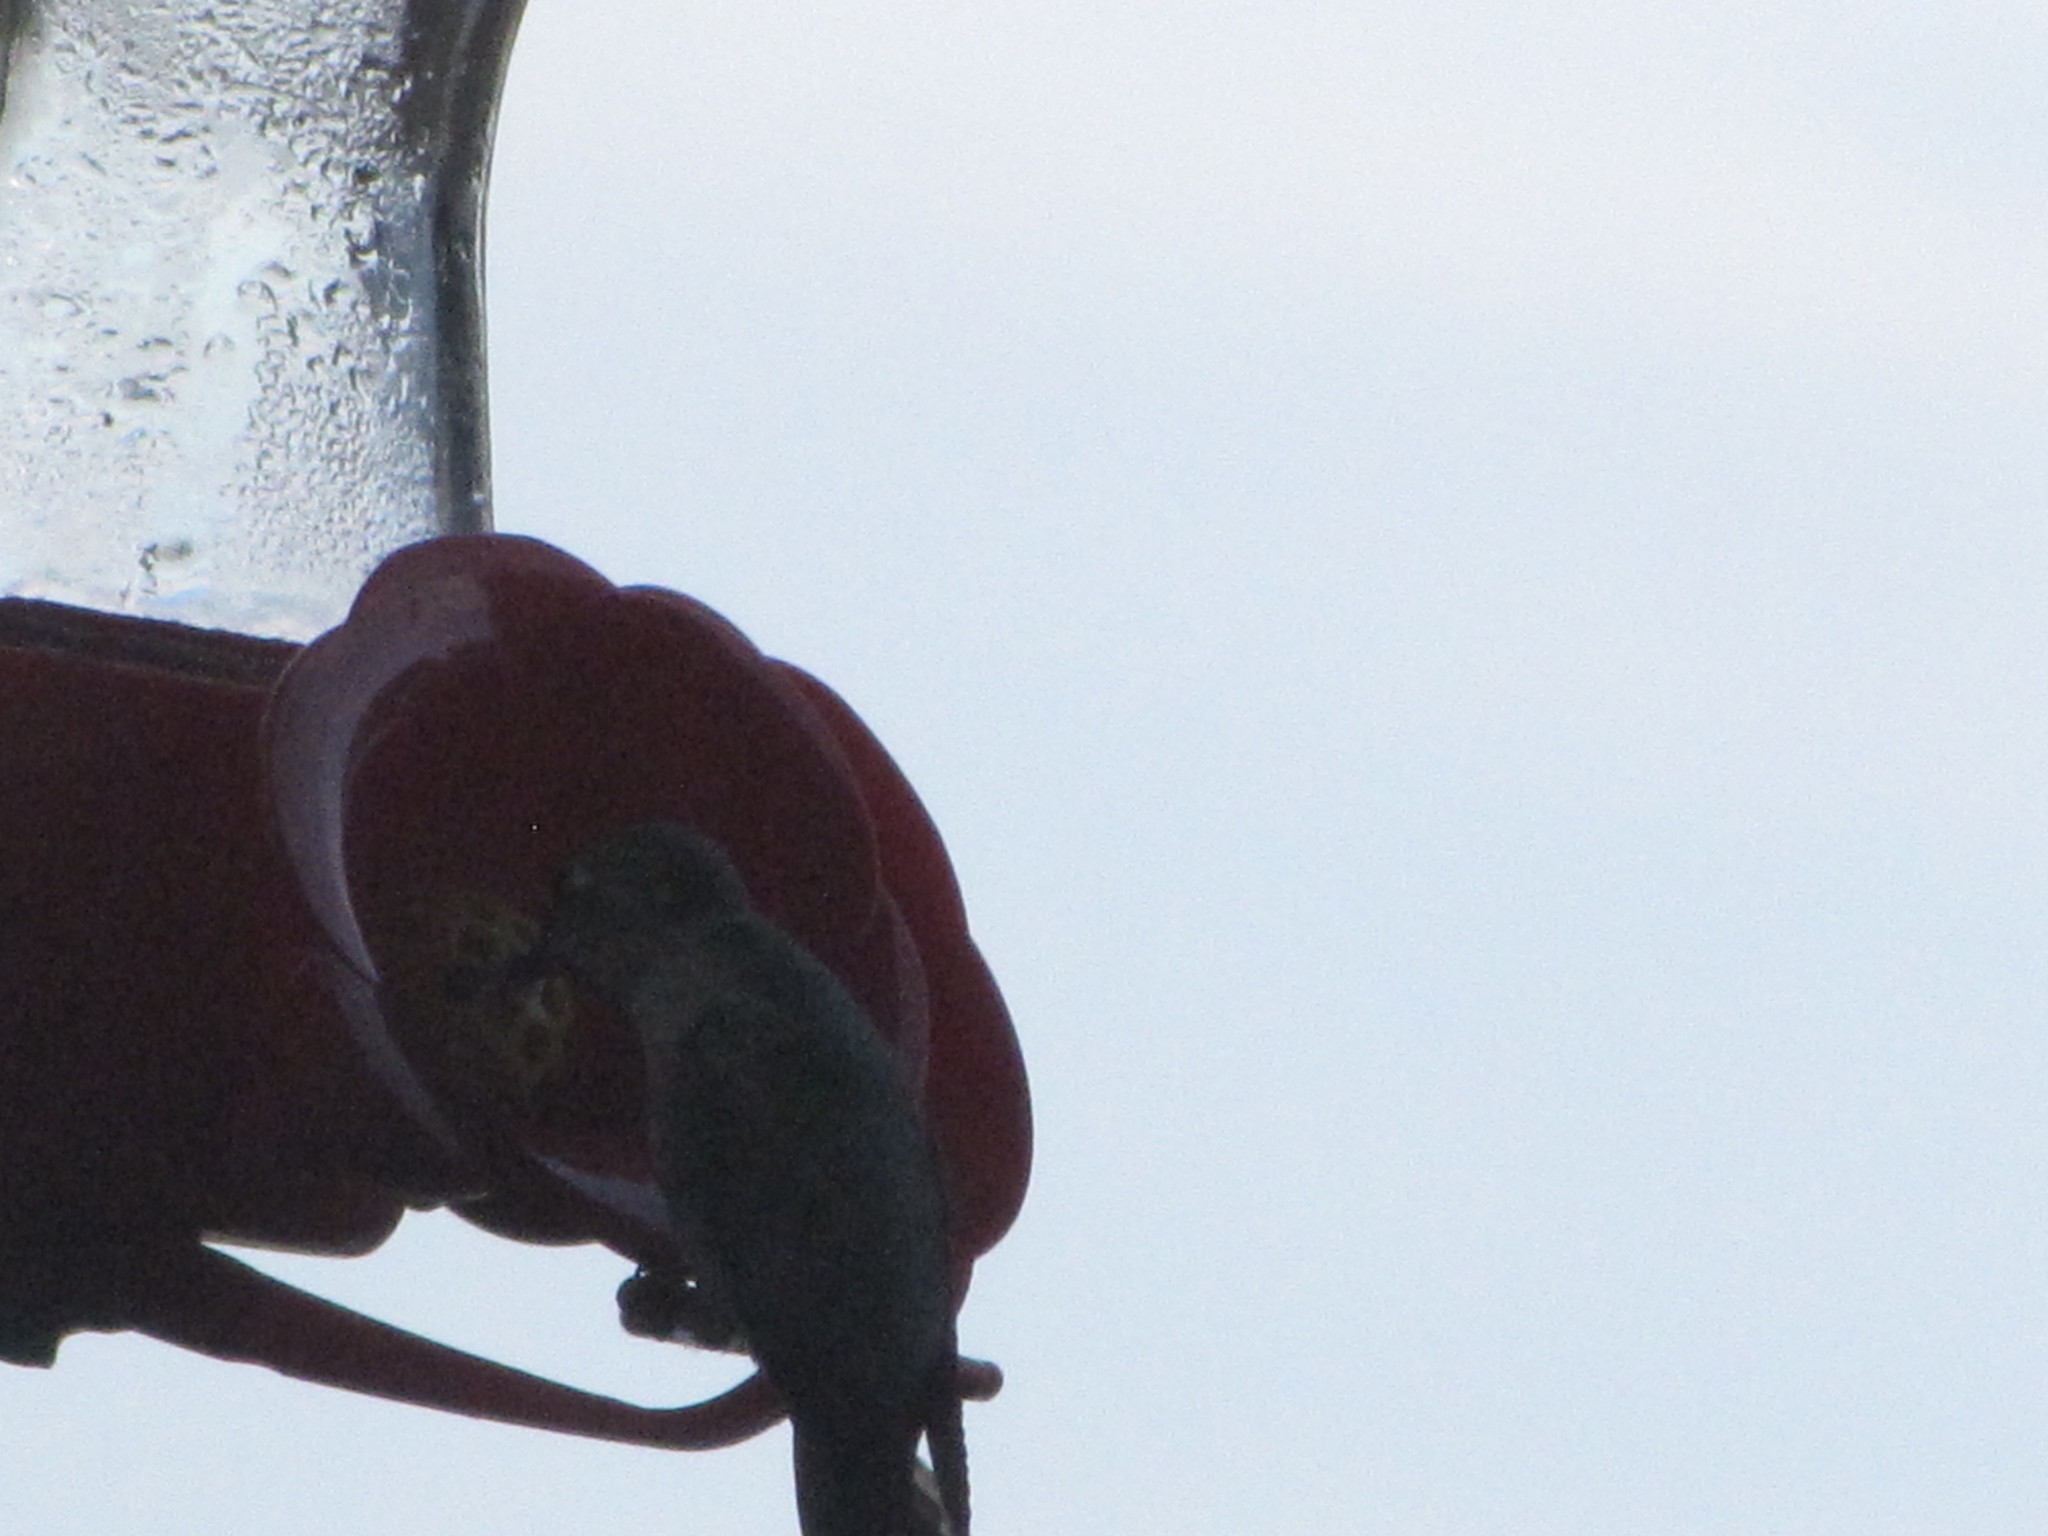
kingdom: Animalia
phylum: Chordata
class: Aves
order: Apodiformes
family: Trochilidae
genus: Calypte
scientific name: Calypte anna
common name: Anna's hummingbird
